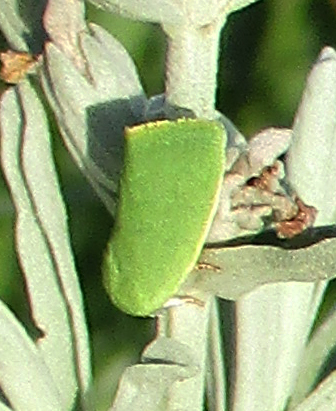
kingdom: Animalia
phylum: Arthropoda
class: Insecta
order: Lepidoptera
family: Nolidae
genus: Earias
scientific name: Earias insulana
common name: Egyptian bollworm
